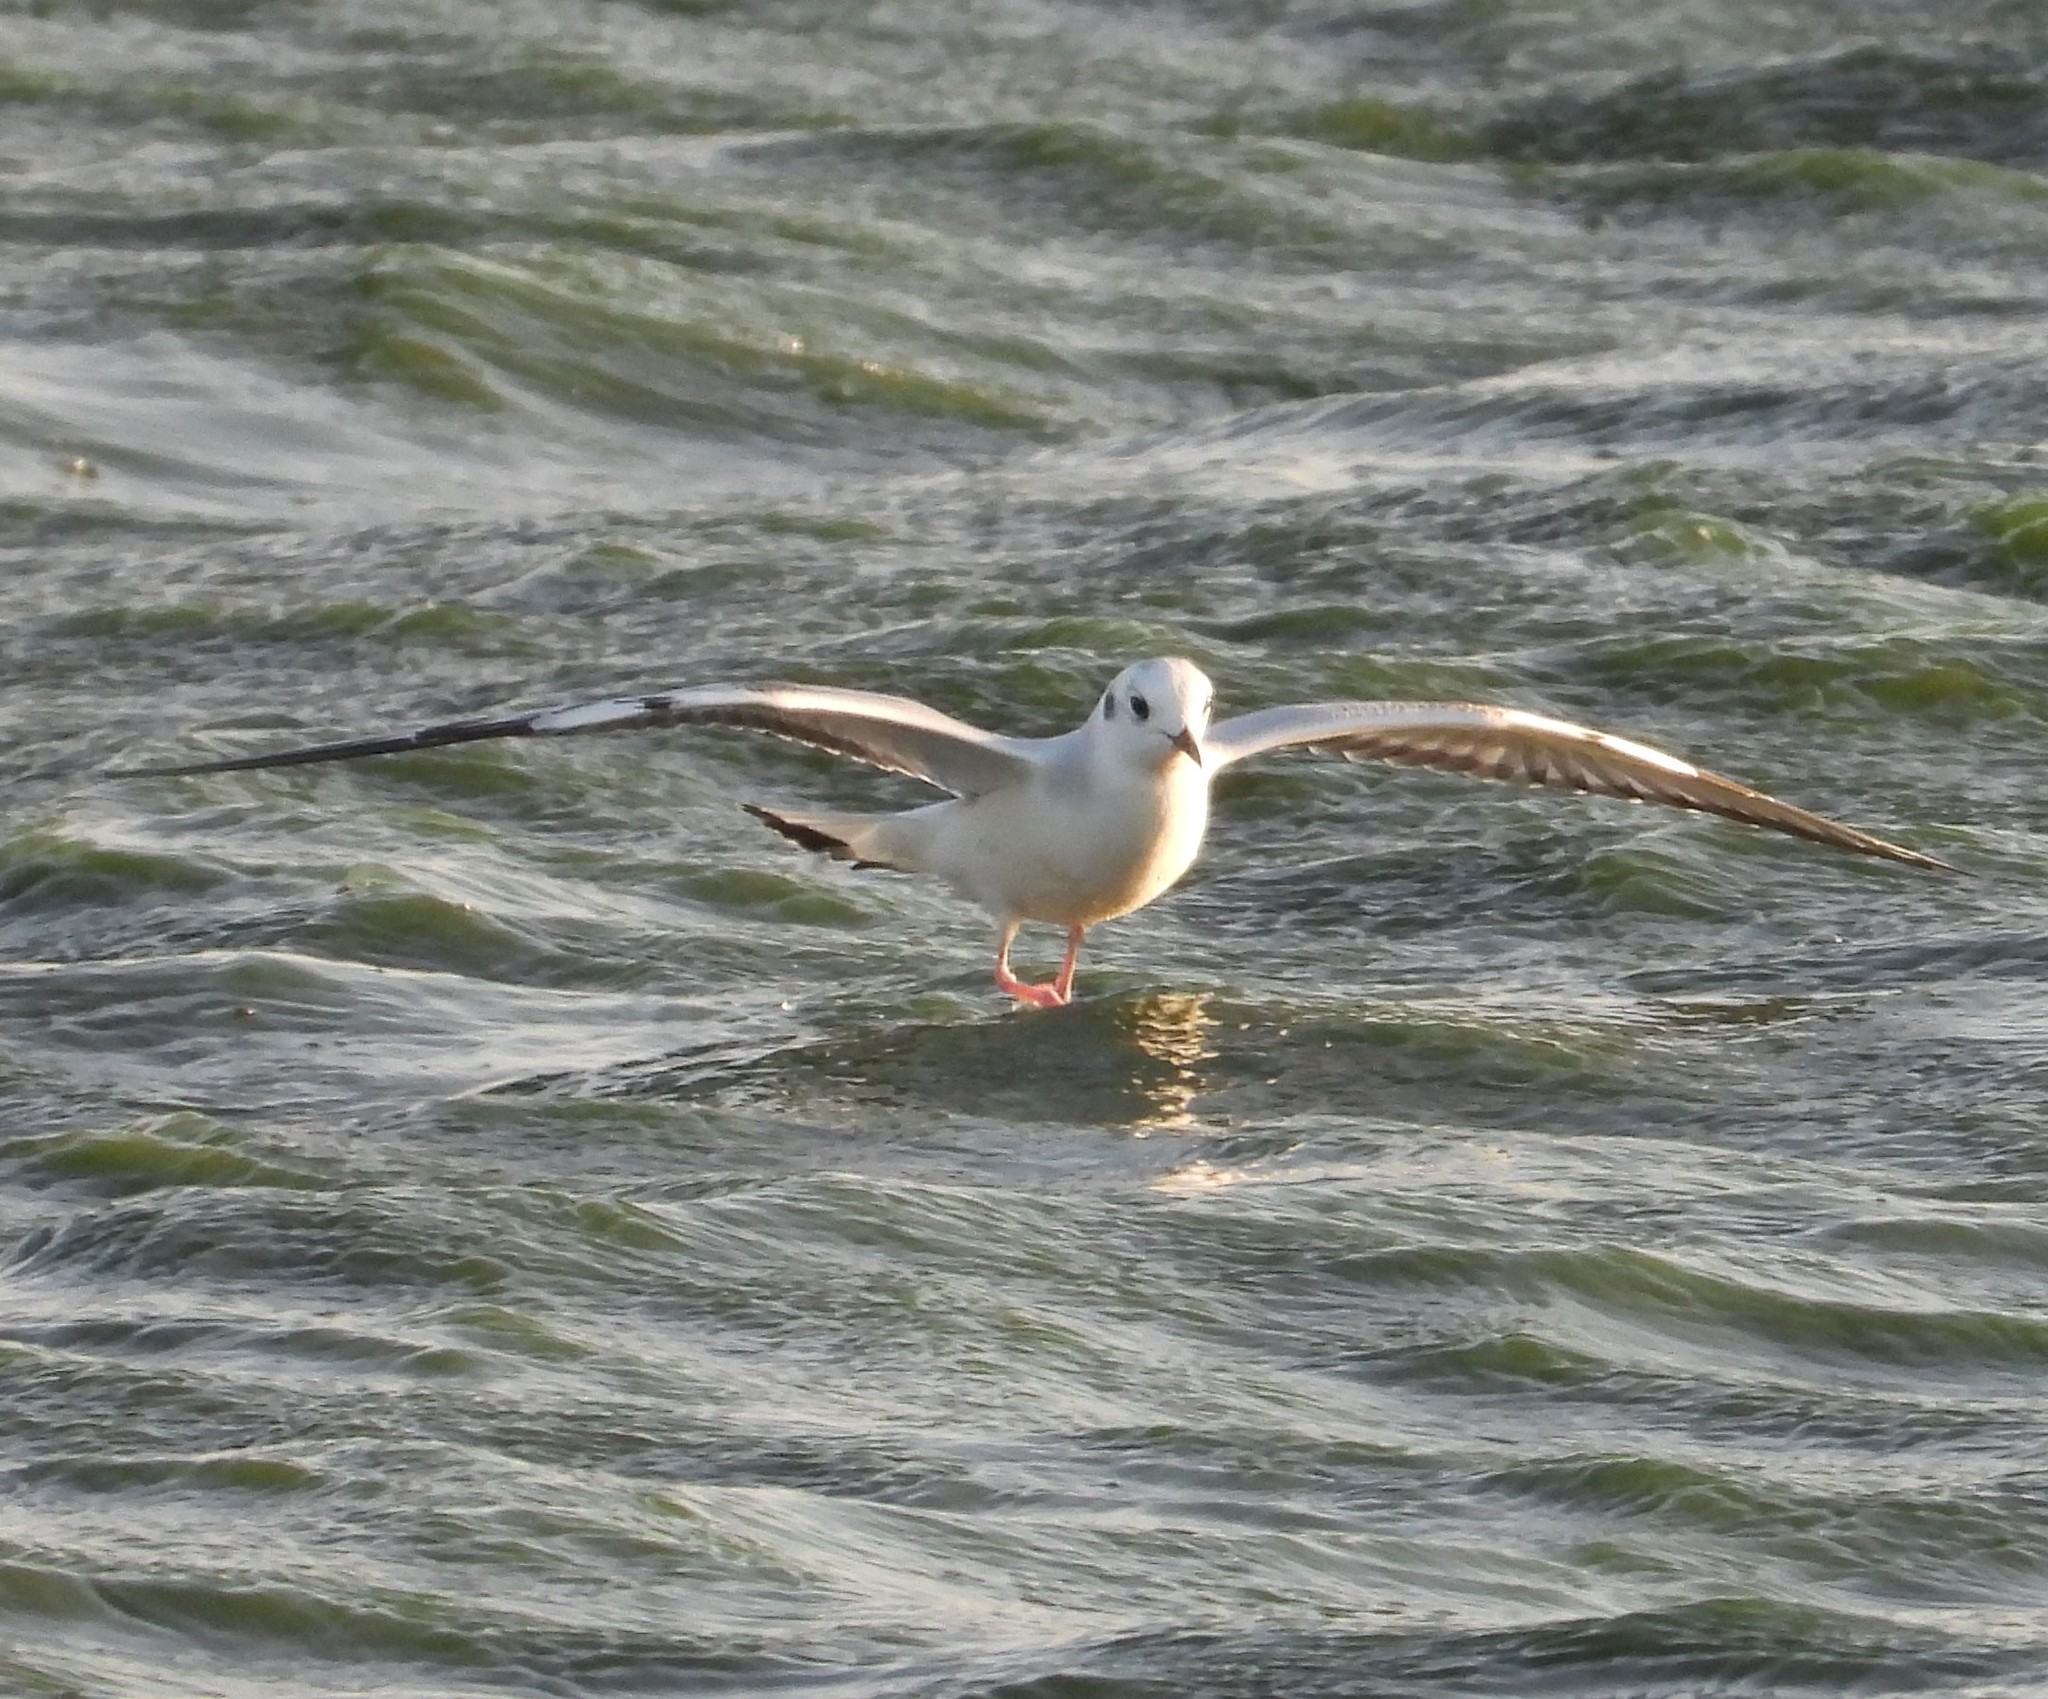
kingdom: Animalia
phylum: Chordata
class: Aves
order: Charadriiformes
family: Laridae
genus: Chroicocephalus
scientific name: Chroicocephalus philadelphia
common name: Bonaparte's gull
